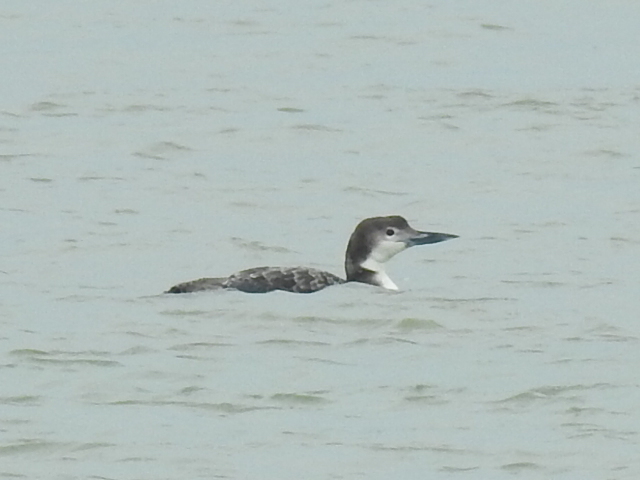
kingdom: Animalia
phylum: Chordata
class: Aves
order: Gaviiformes
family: Gaviidae
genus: Gavia
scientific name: Gavia immer
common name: Common loon
